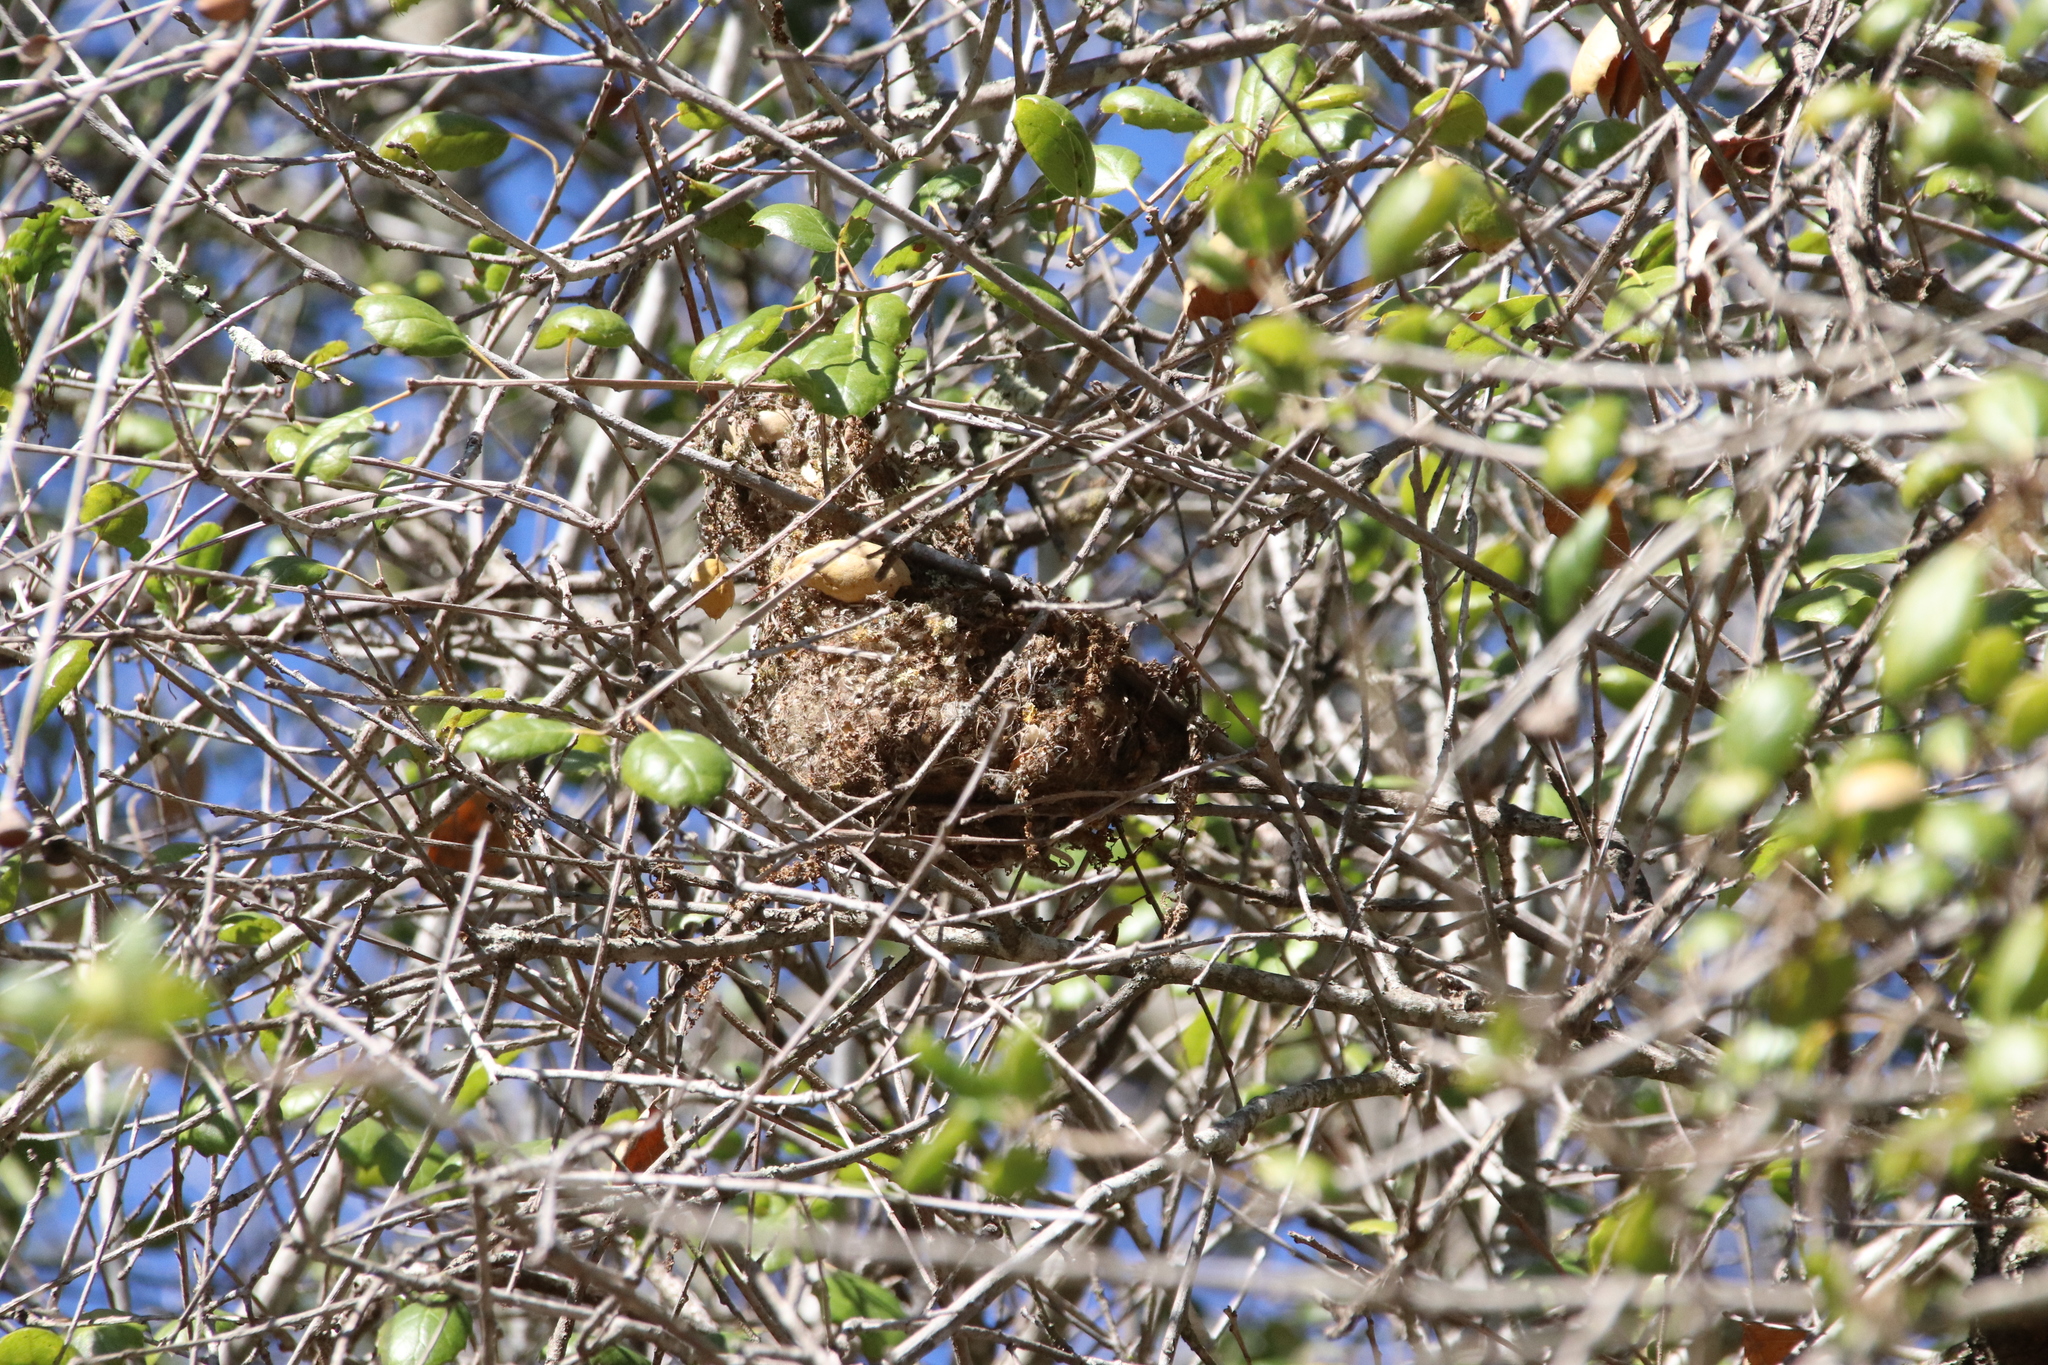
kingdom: Animalia
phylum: Chordata
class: Aves
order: Passeriformes
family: Aegithalidae
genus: Psaltriparus
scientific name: Psaltriparus minimus
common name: American bushtit
